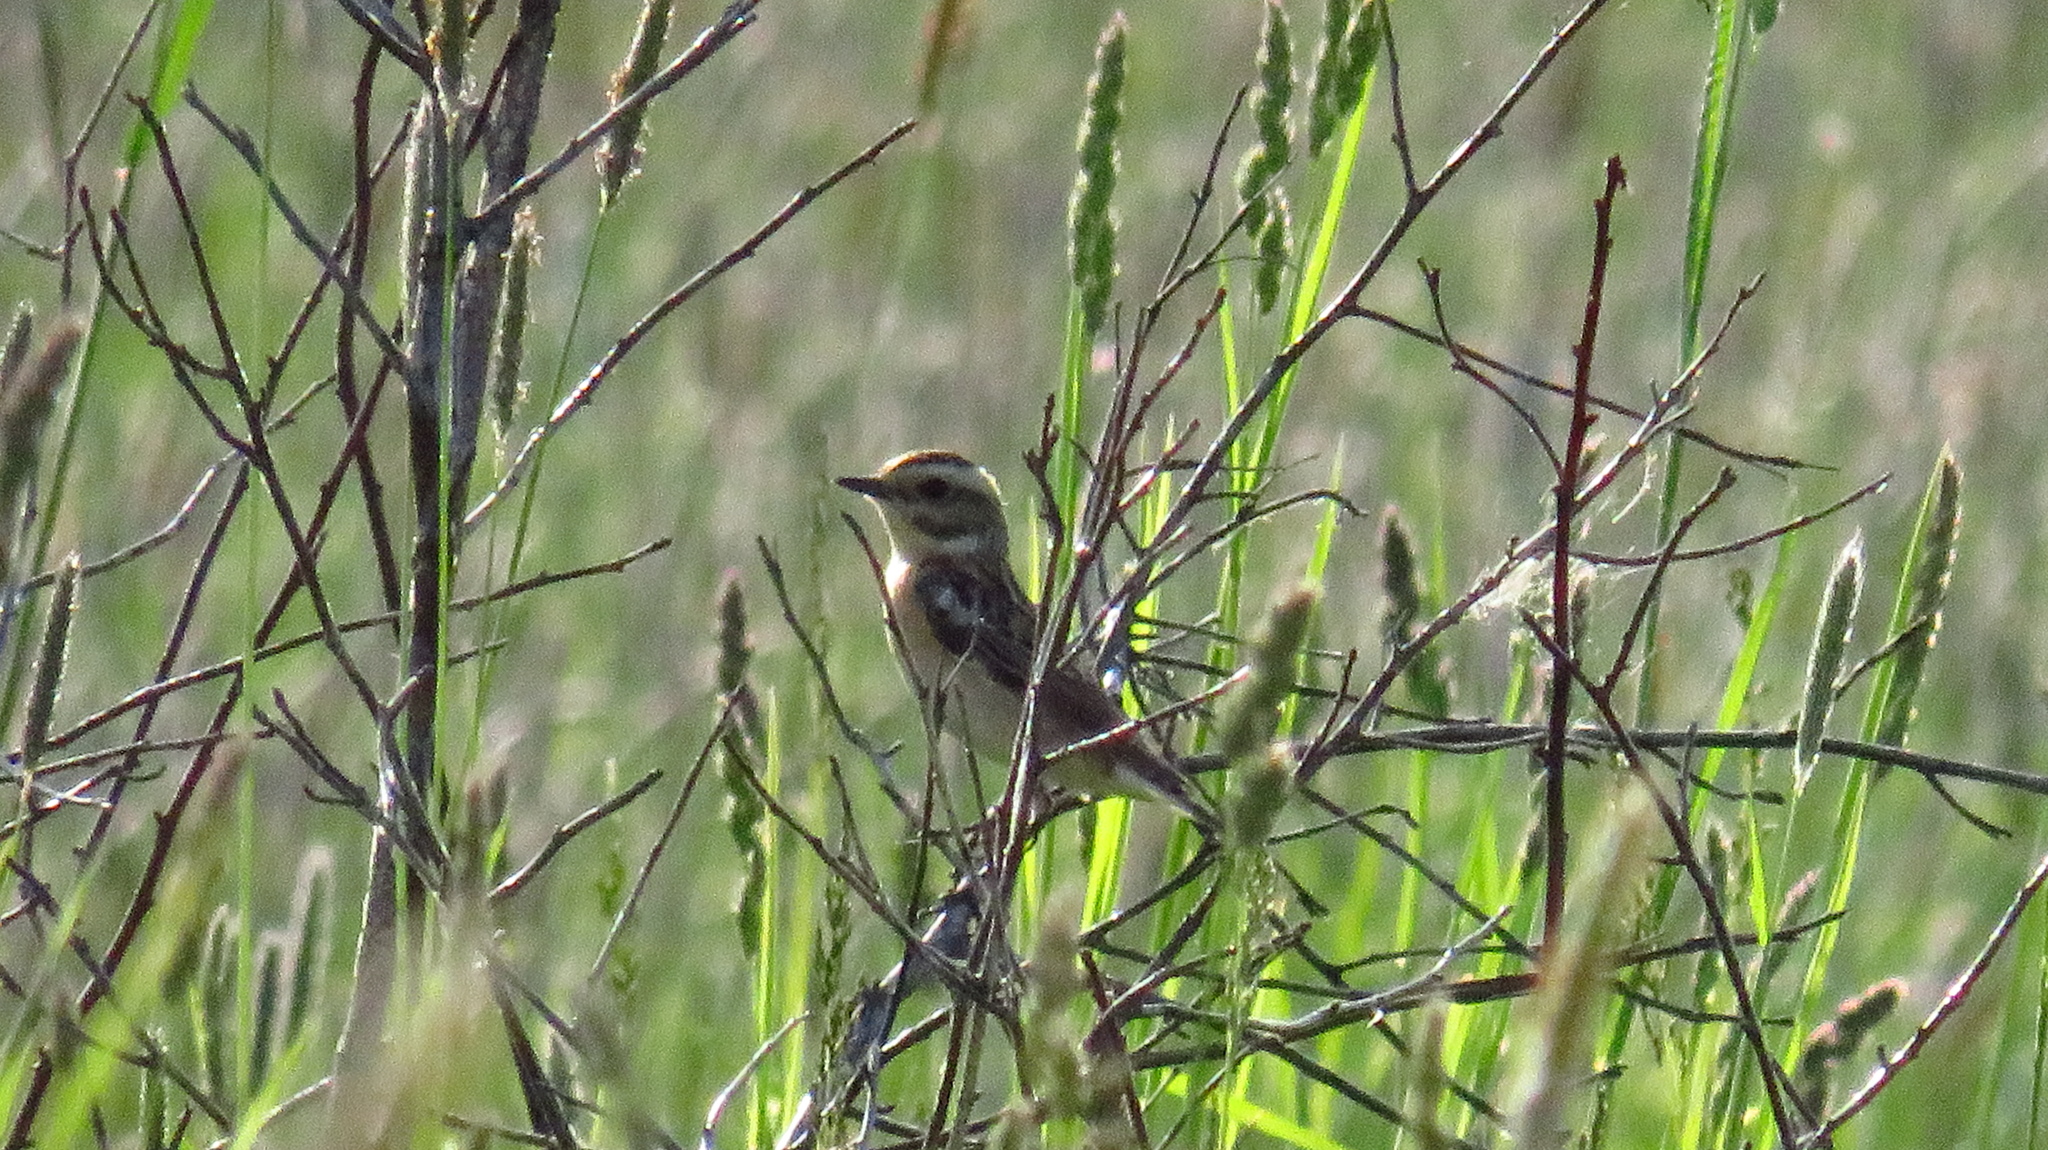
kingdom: Animalia
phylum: Chordata
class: Aves
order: Passeriformes
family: Muscicapidae
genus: Saxicola
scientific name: Saxicola rubetra
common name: Whinchat
